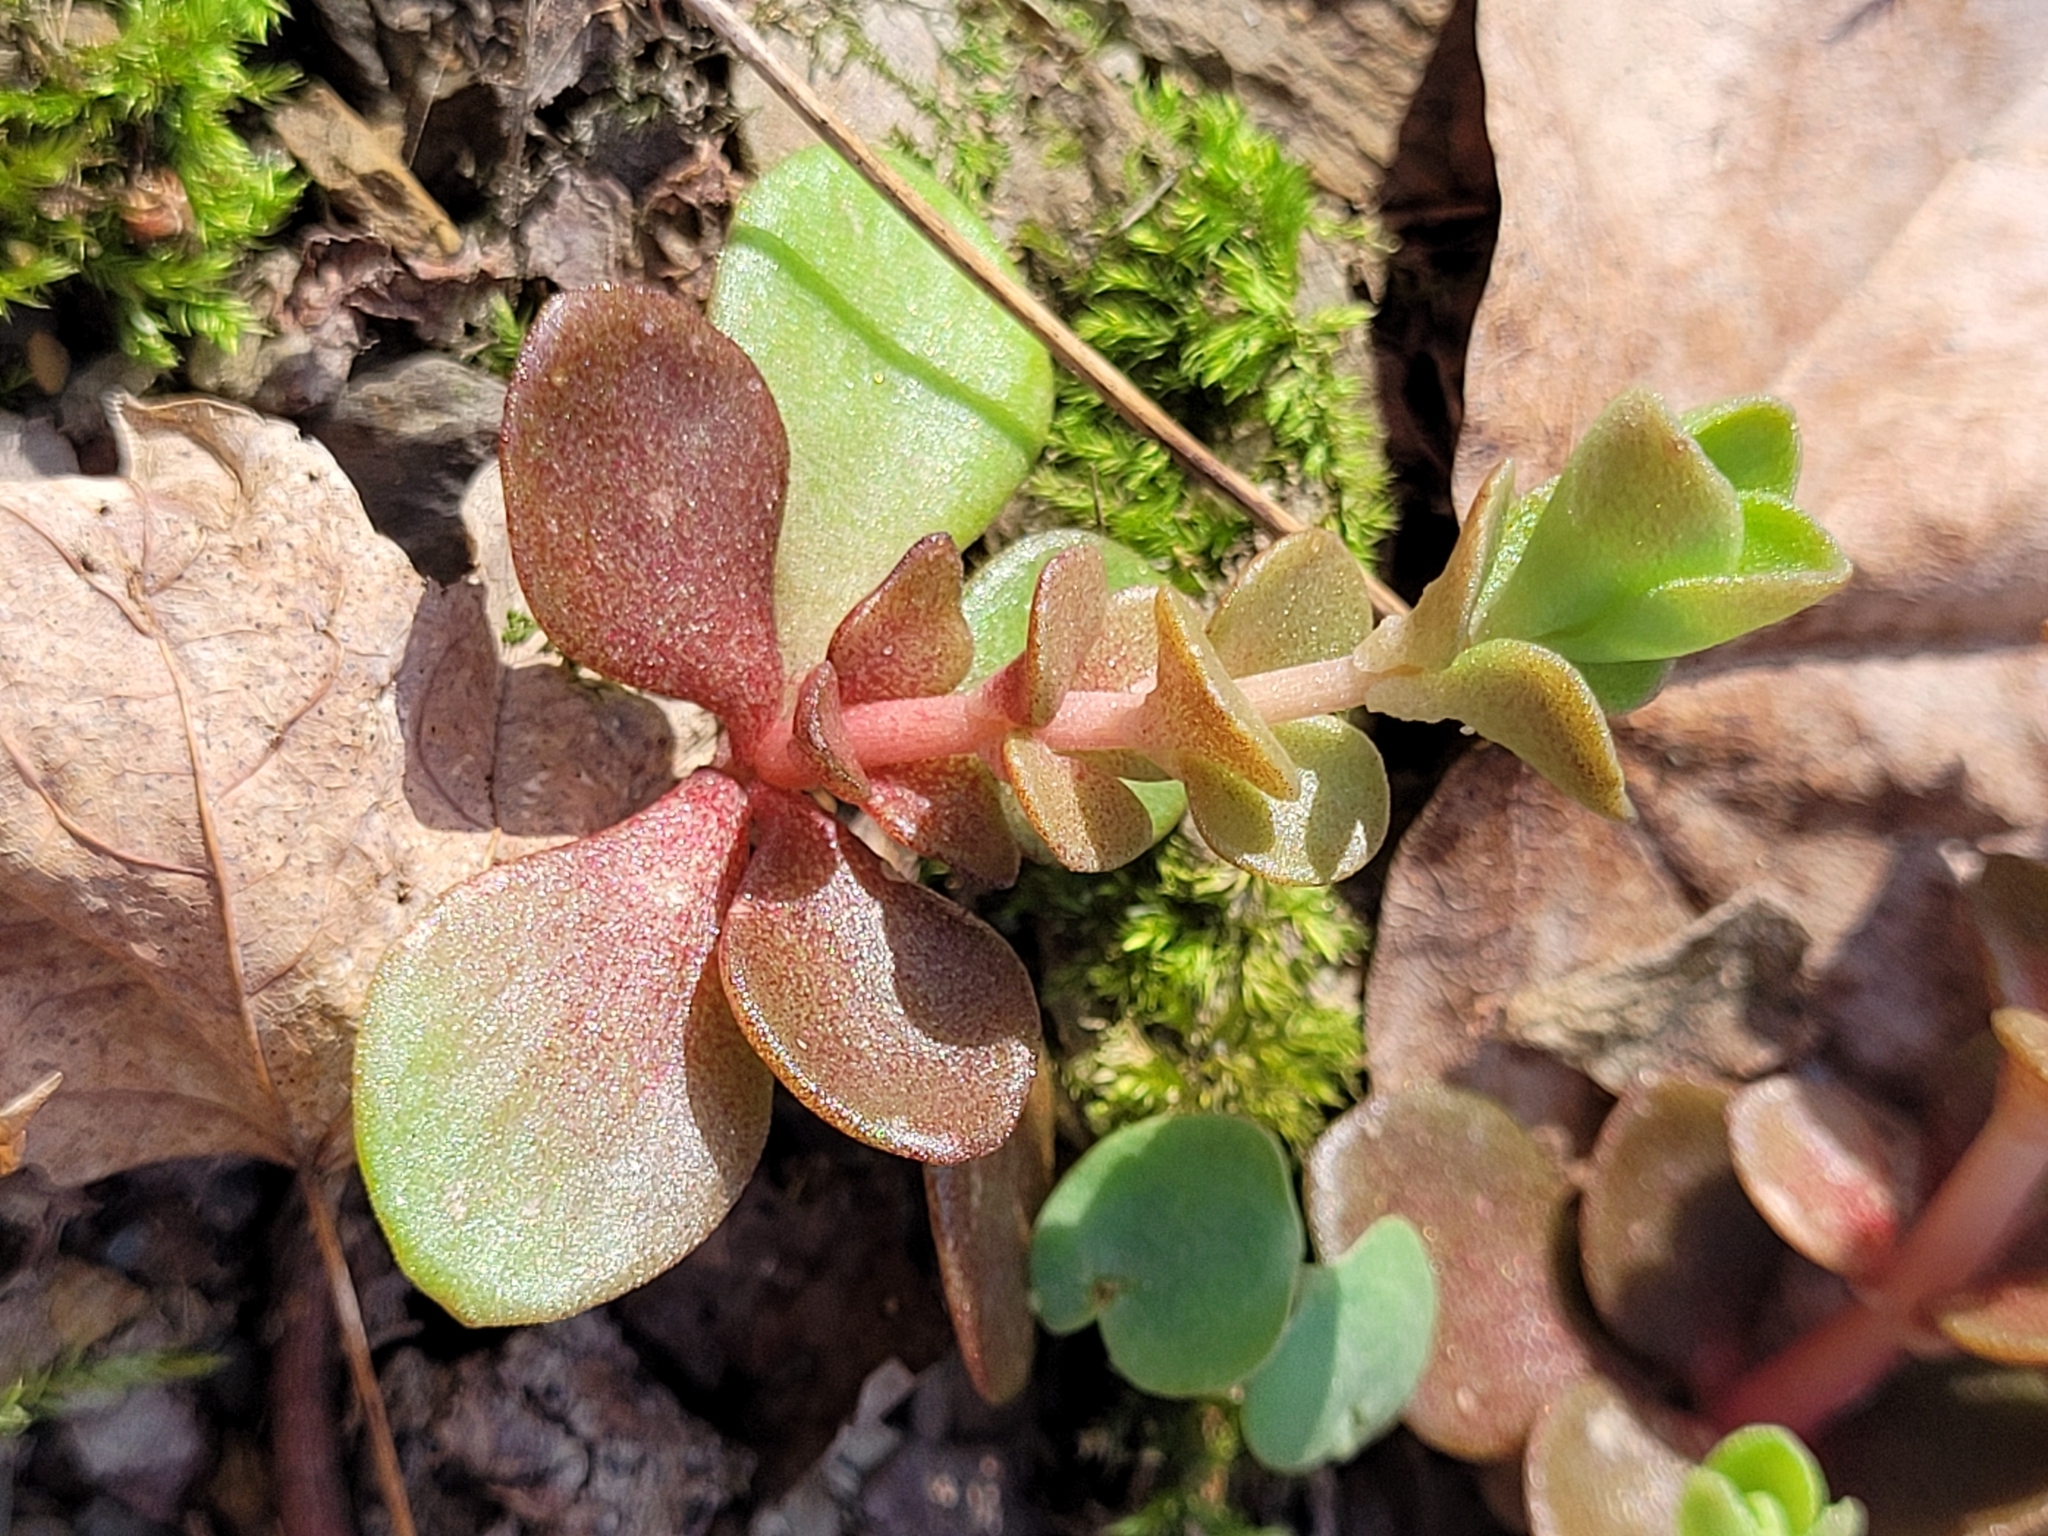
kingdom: Plantae
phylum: Tracheophyta
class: Magnoliopsida
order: Saxifragales
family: Crassulaceae
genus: Sedum
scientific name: Sedum ternatum
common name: Wild stonecrop
